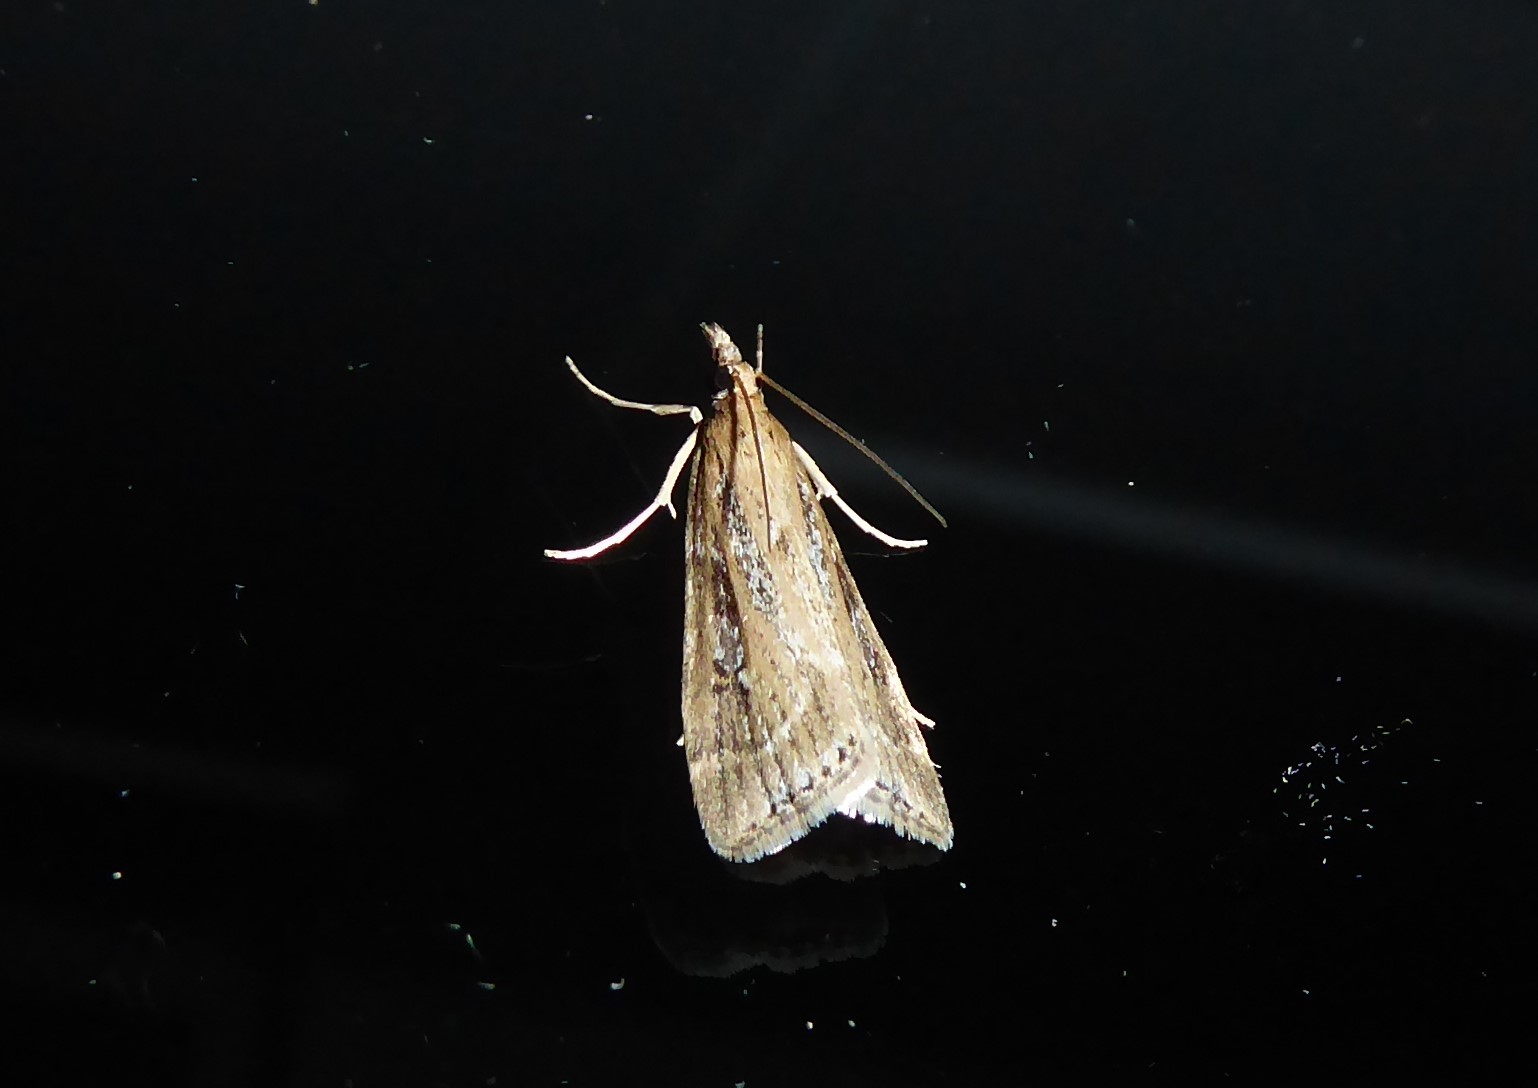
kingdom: Animalia
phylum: Arthropoda
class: Insecta
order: Lepidoptera
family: Crambidae
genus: Eudonia
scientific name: Eudonia octophora
